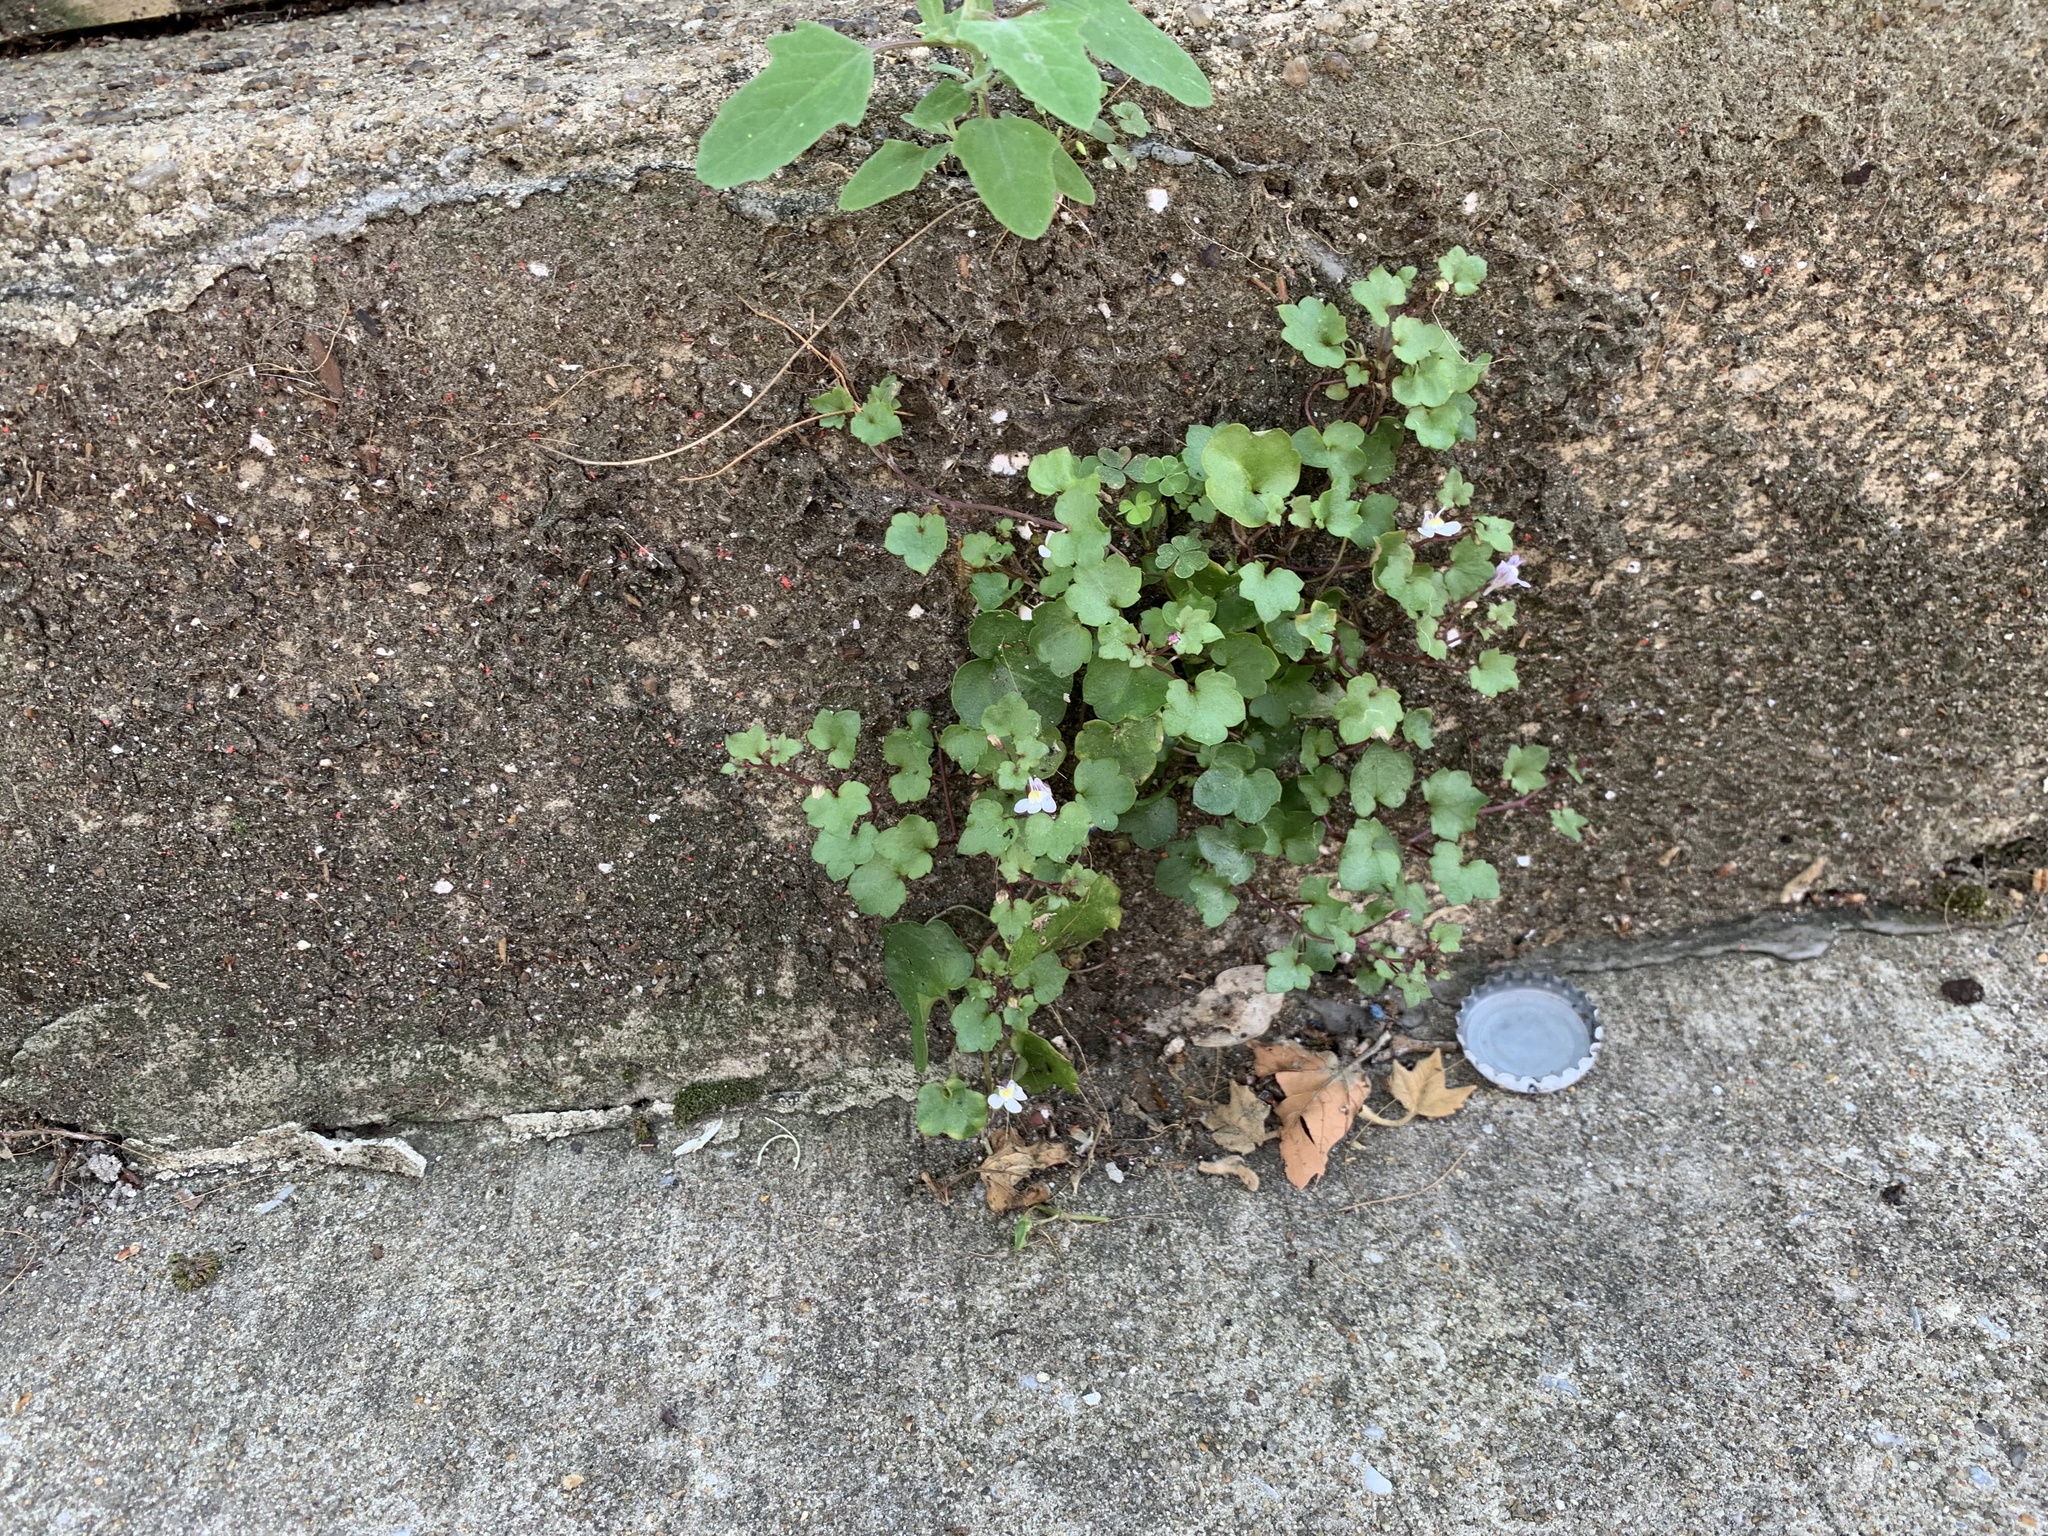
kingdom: Plantae
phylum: Tracheophyta
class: Magnoliopsida
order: Lamiales
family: Plantaginaceae
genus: Cymbalaria
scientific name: Cymbalaria muralis
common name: Ivy-leaved toadflax
